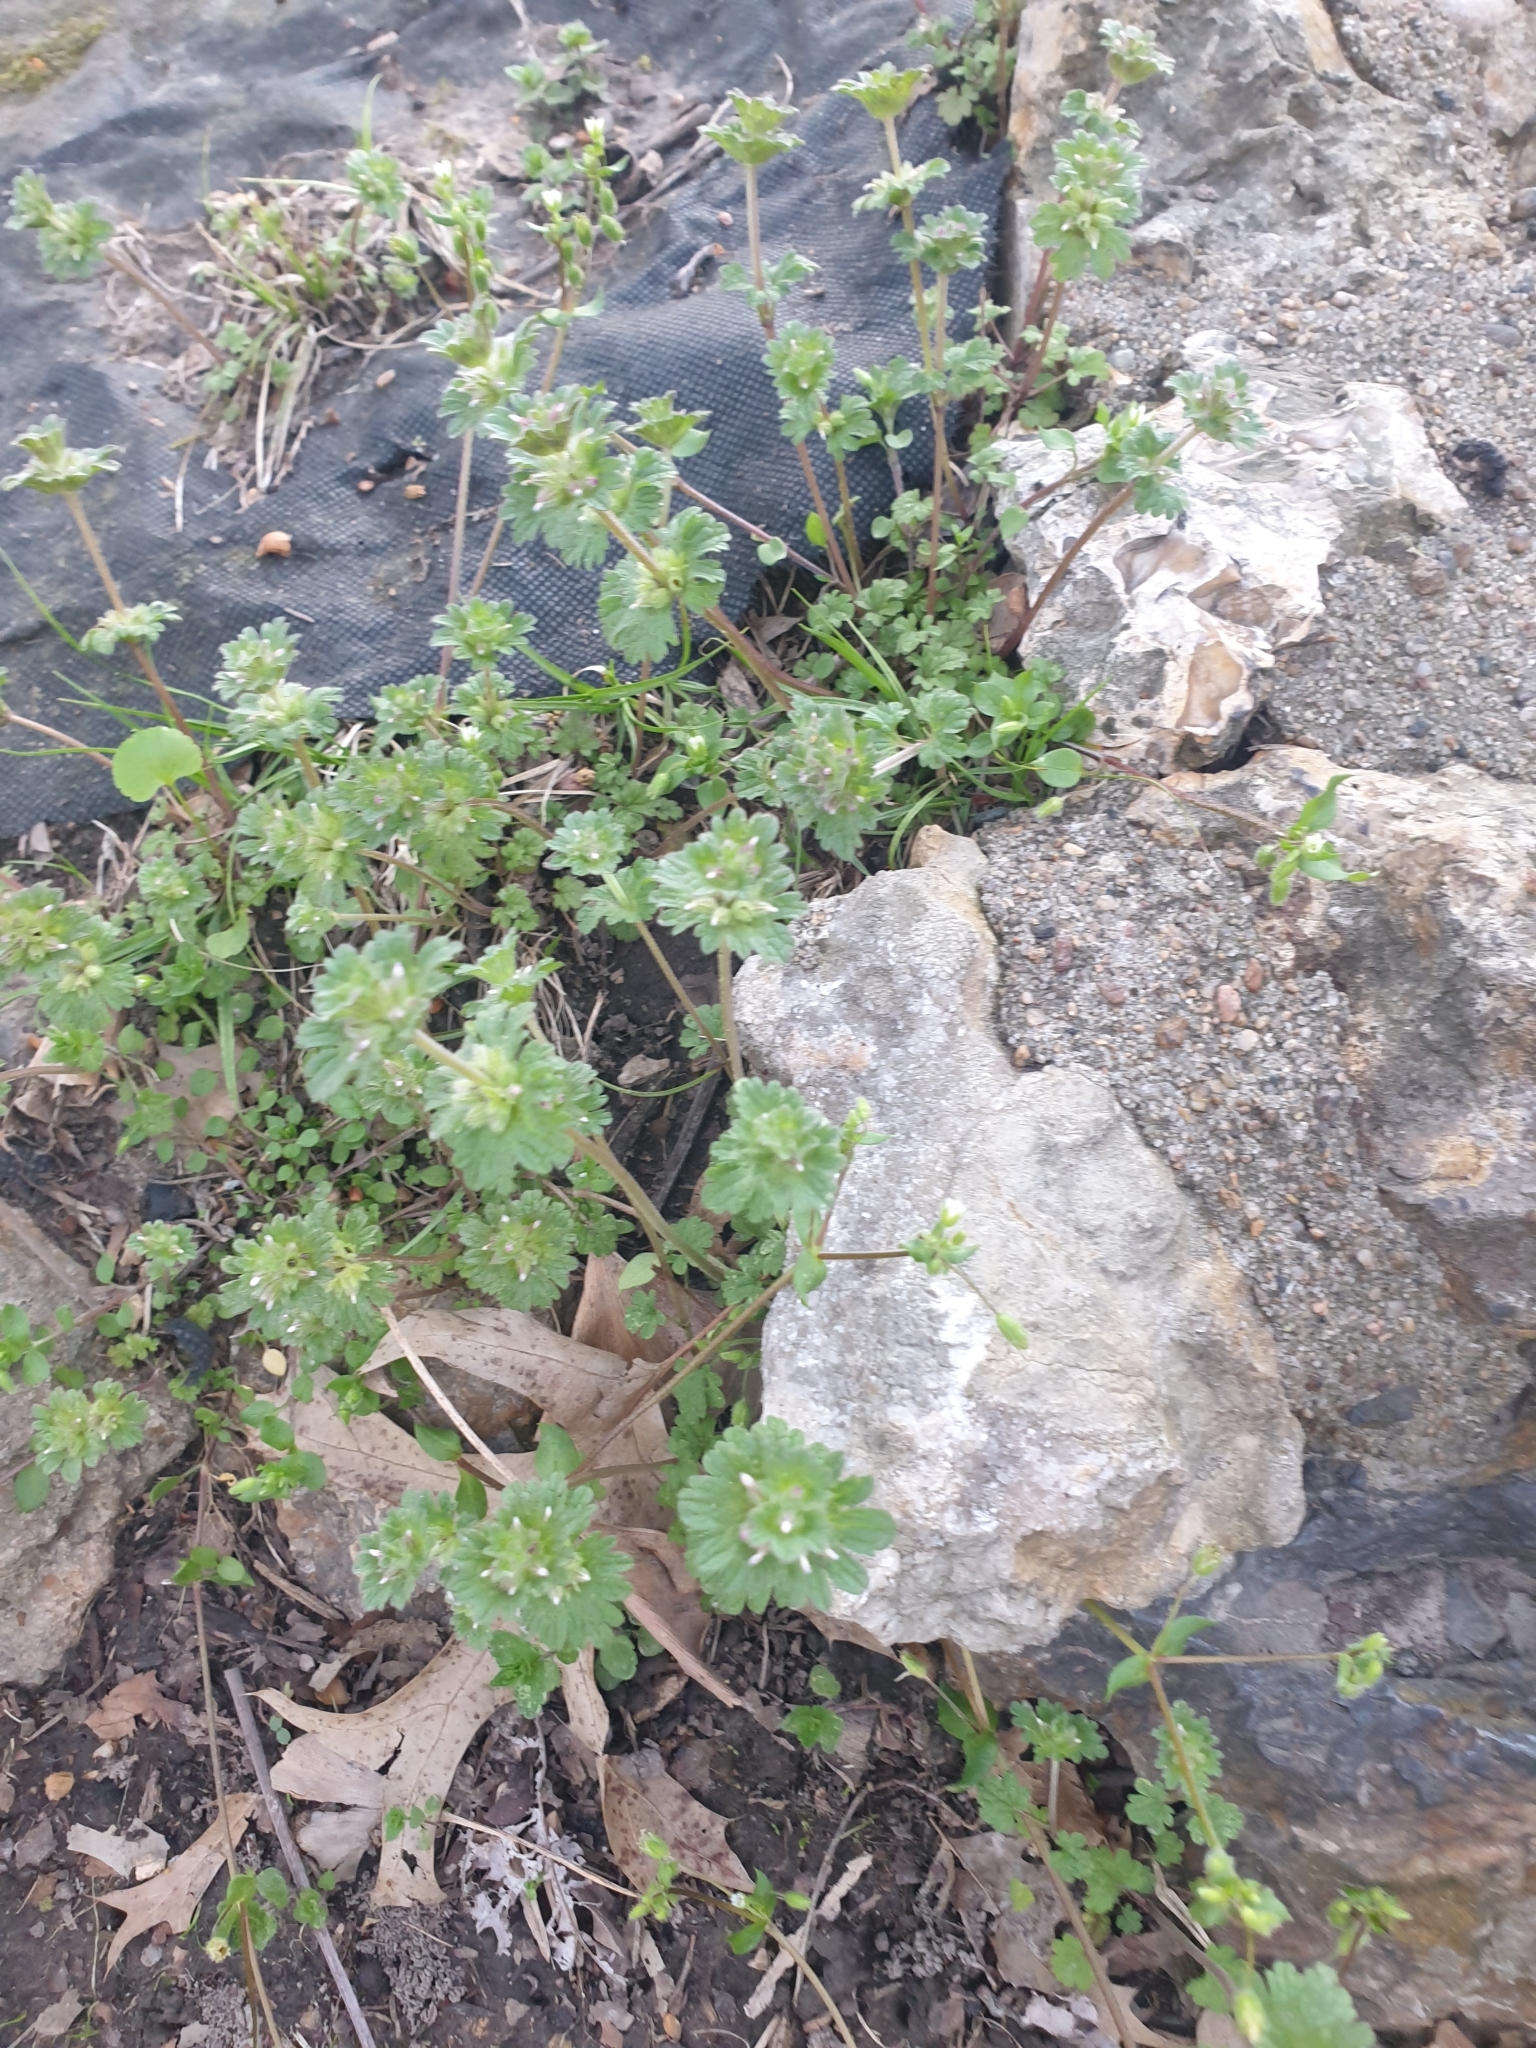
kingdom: Plantae
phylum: Tracheophyta
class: Magnoliopsida
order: Lamiales
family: Lamiaceae
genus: Lamium
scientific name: Lamium amplexicaule
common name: Henbit dead-nettle
